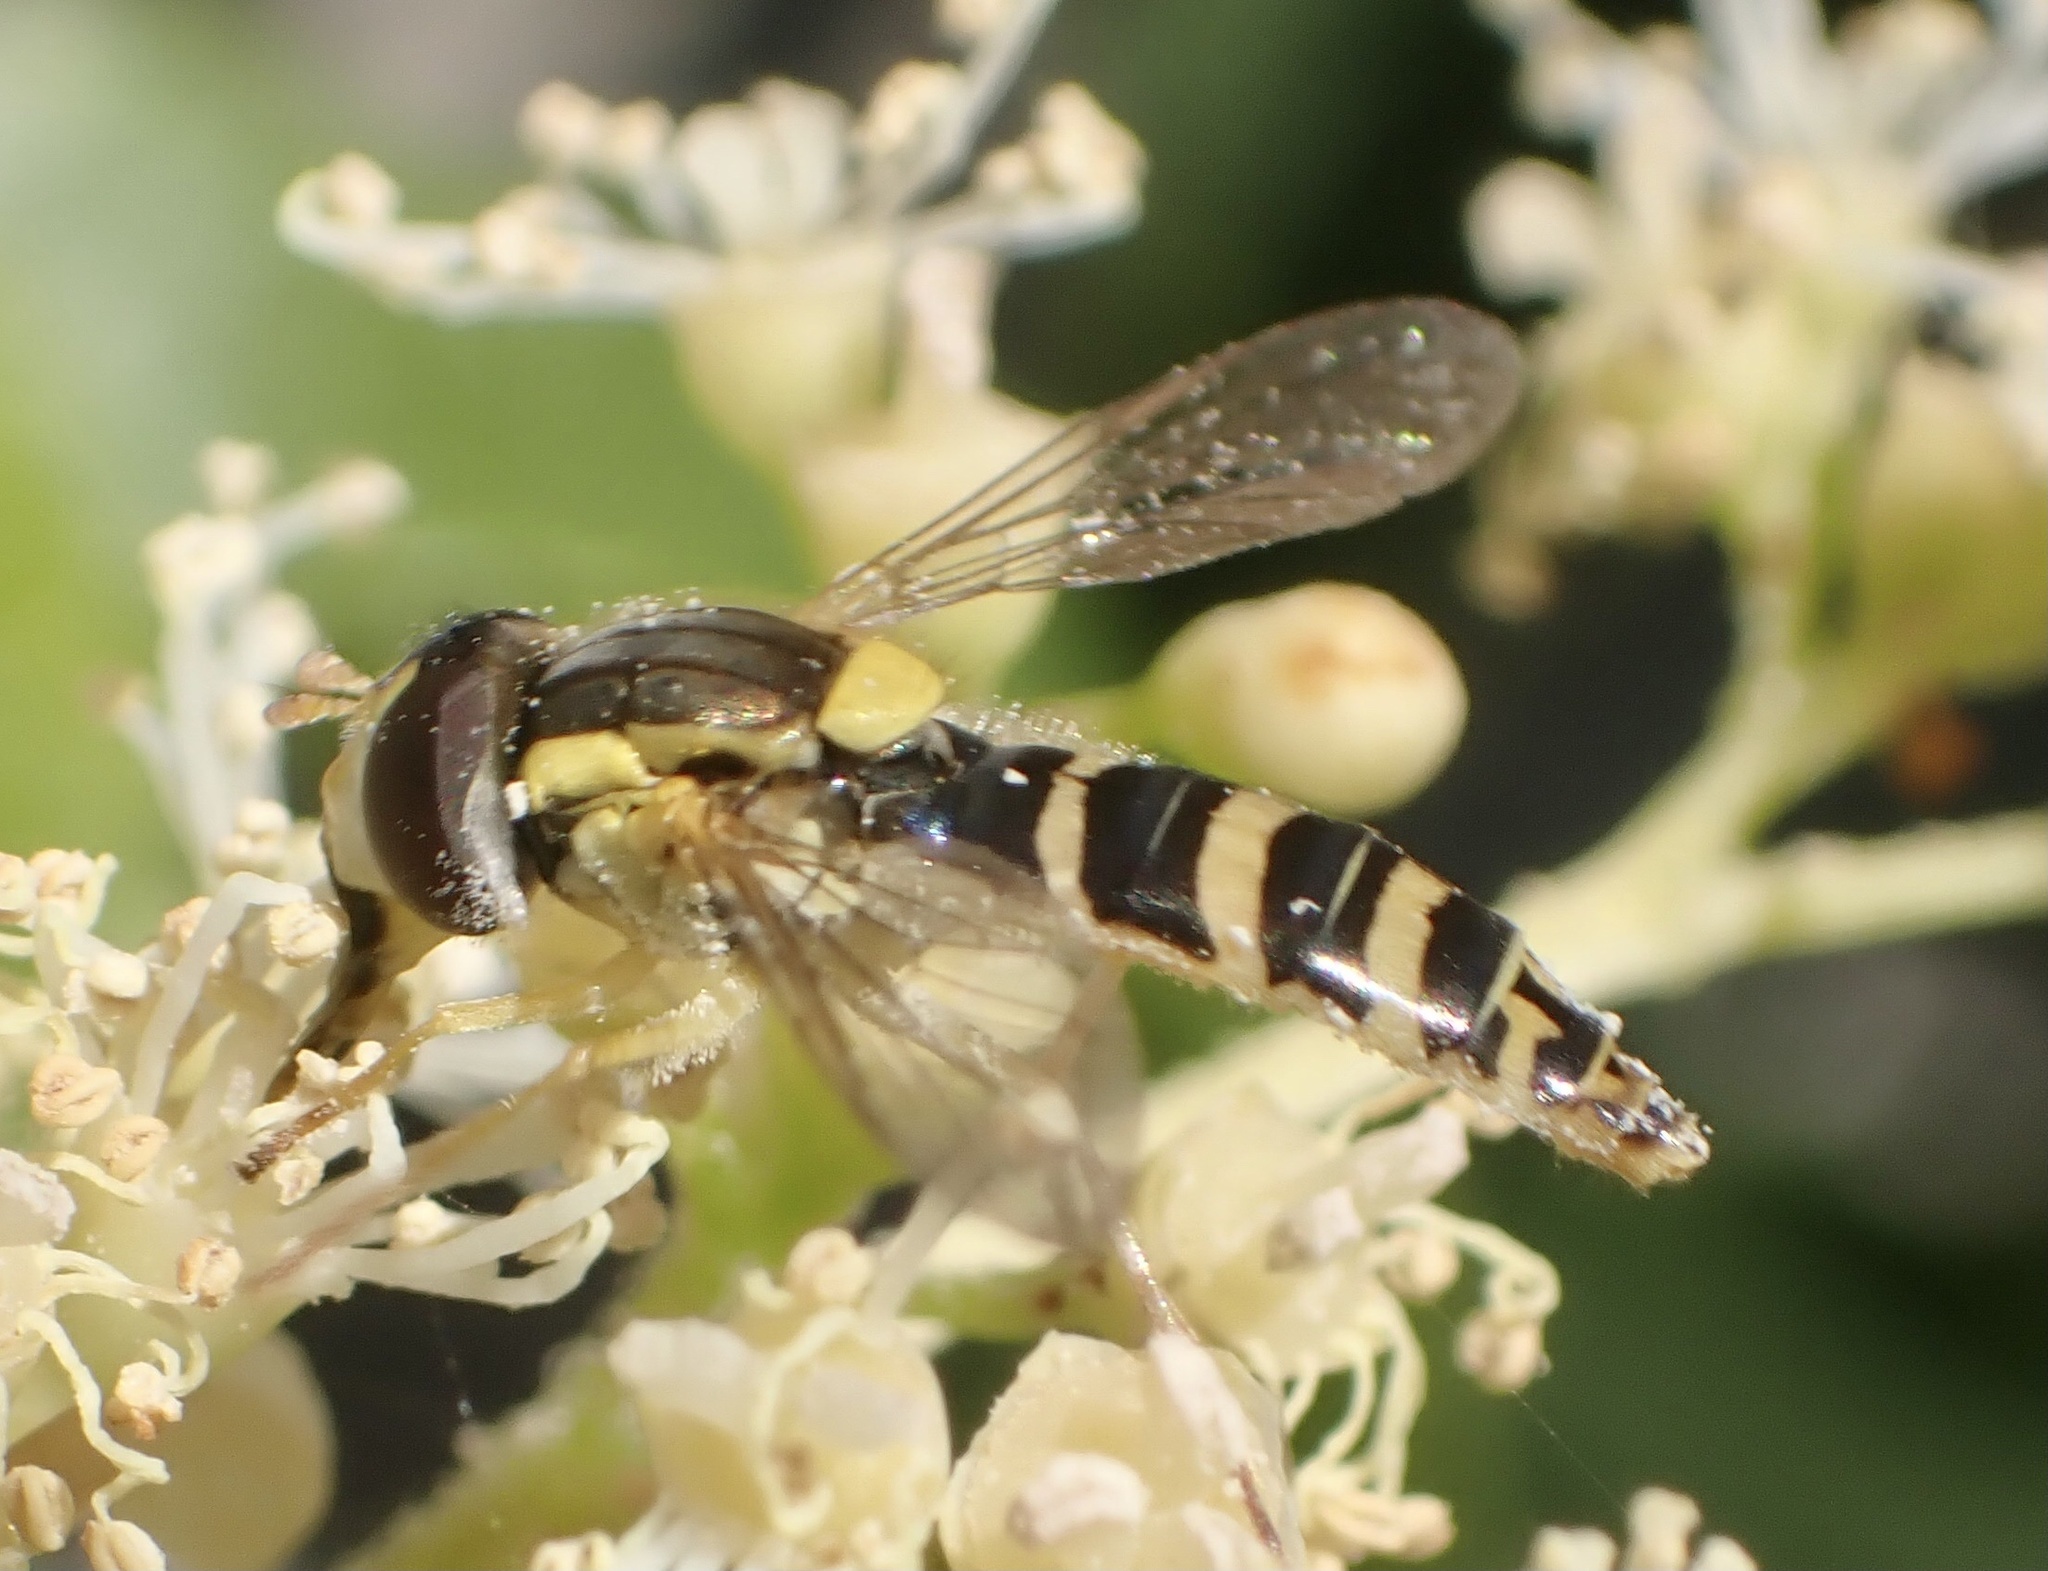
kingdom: Animalia
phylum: Arthropoda
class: Insecta
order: Diptera
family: Syrphidae
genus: Sphaerophoria
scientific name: Sphaerophoria
